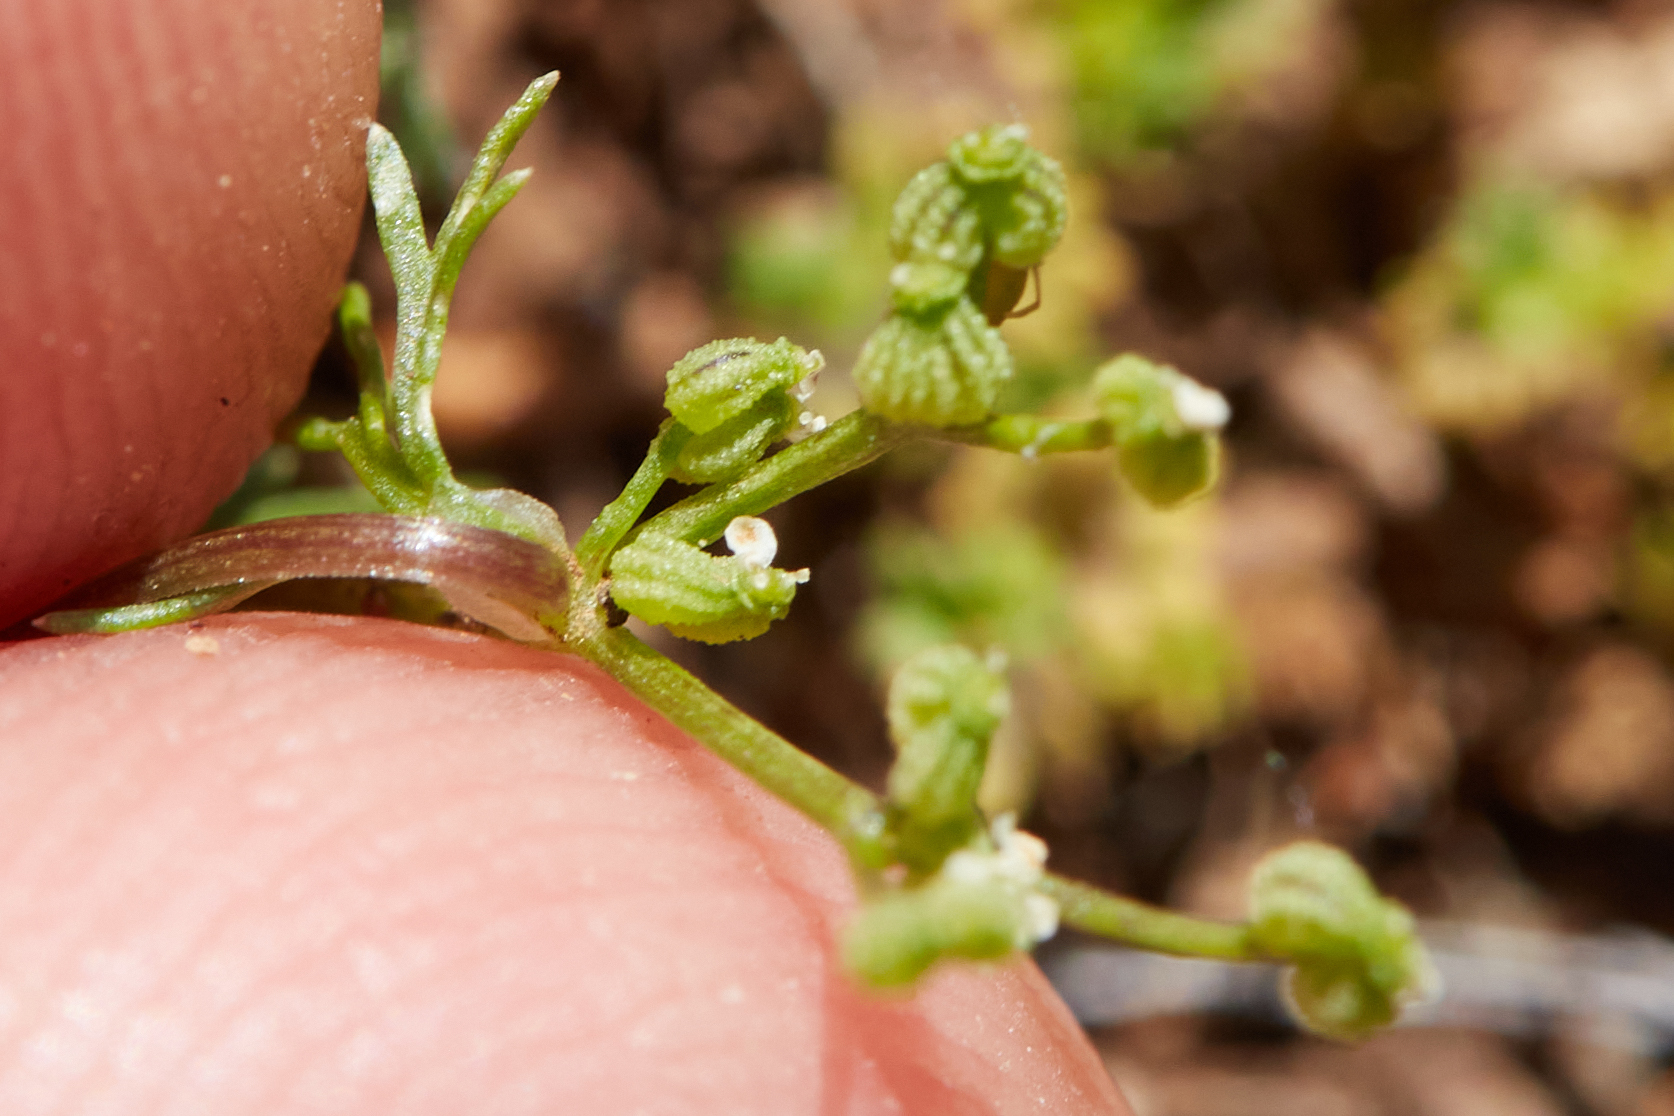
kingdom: Plantae
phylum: Tracheophyta
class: Magnoliopsida
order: Apiales
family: Apiaceae
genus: Apiastrum
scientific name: Apiastrum angustifolium
